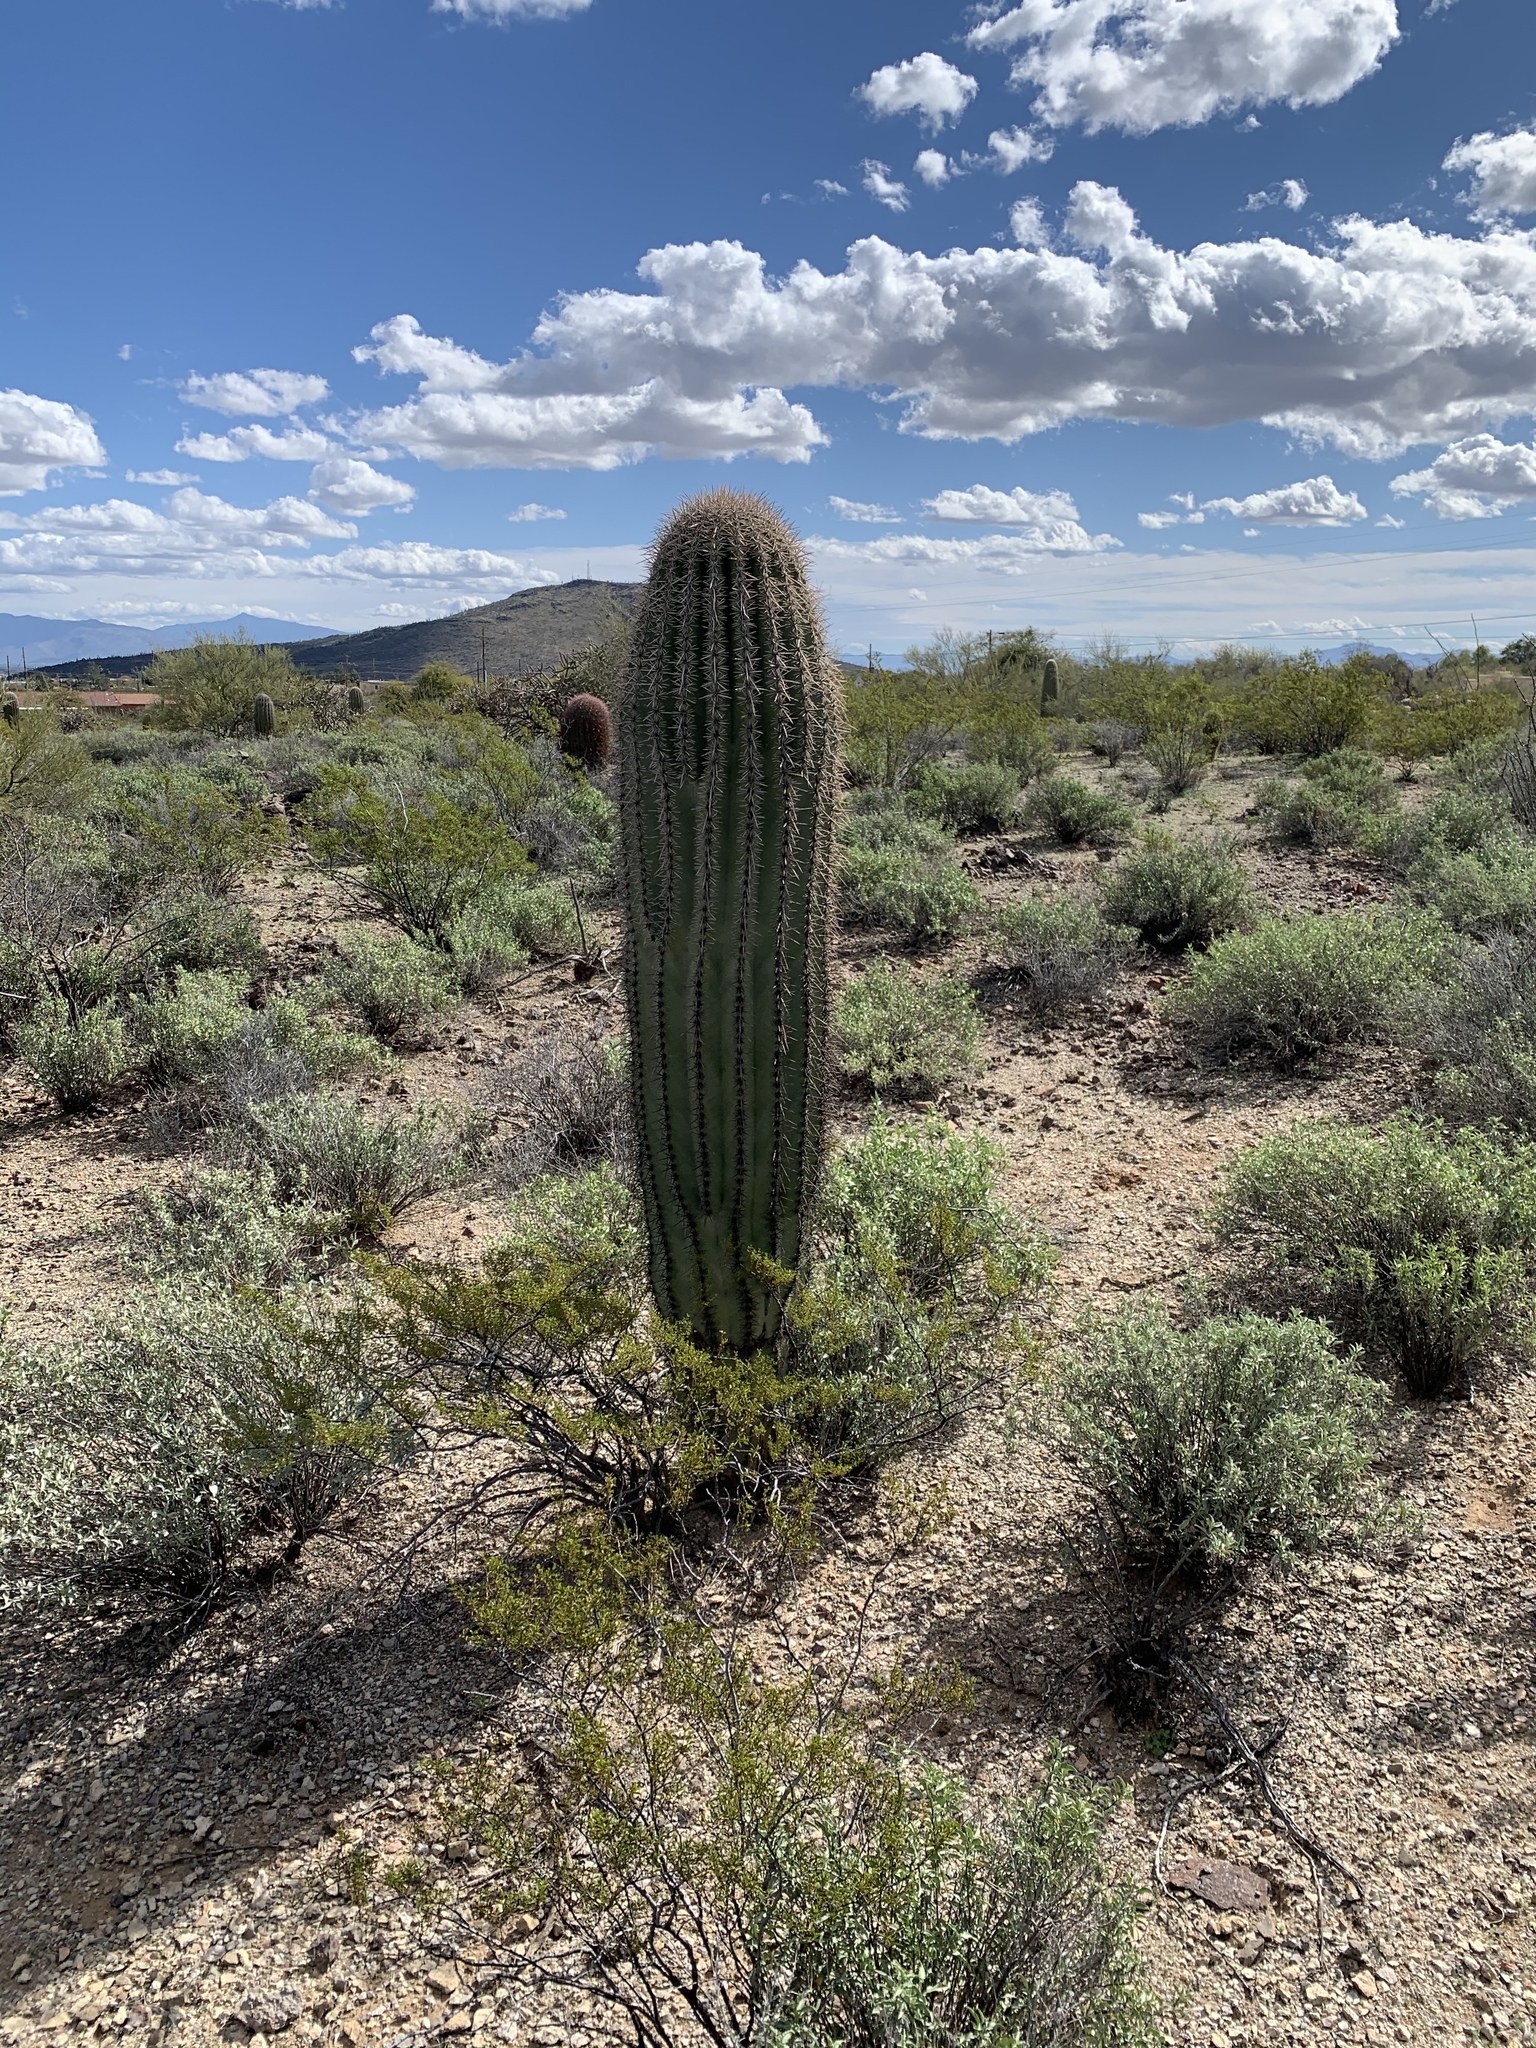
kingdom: Plantae
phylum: Tracheophyta
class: Magnoliopsida
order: Caryophyllales
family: Cactaceae
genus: Carnegiea
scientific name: Carnegiea gigantea
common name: Saguaro
